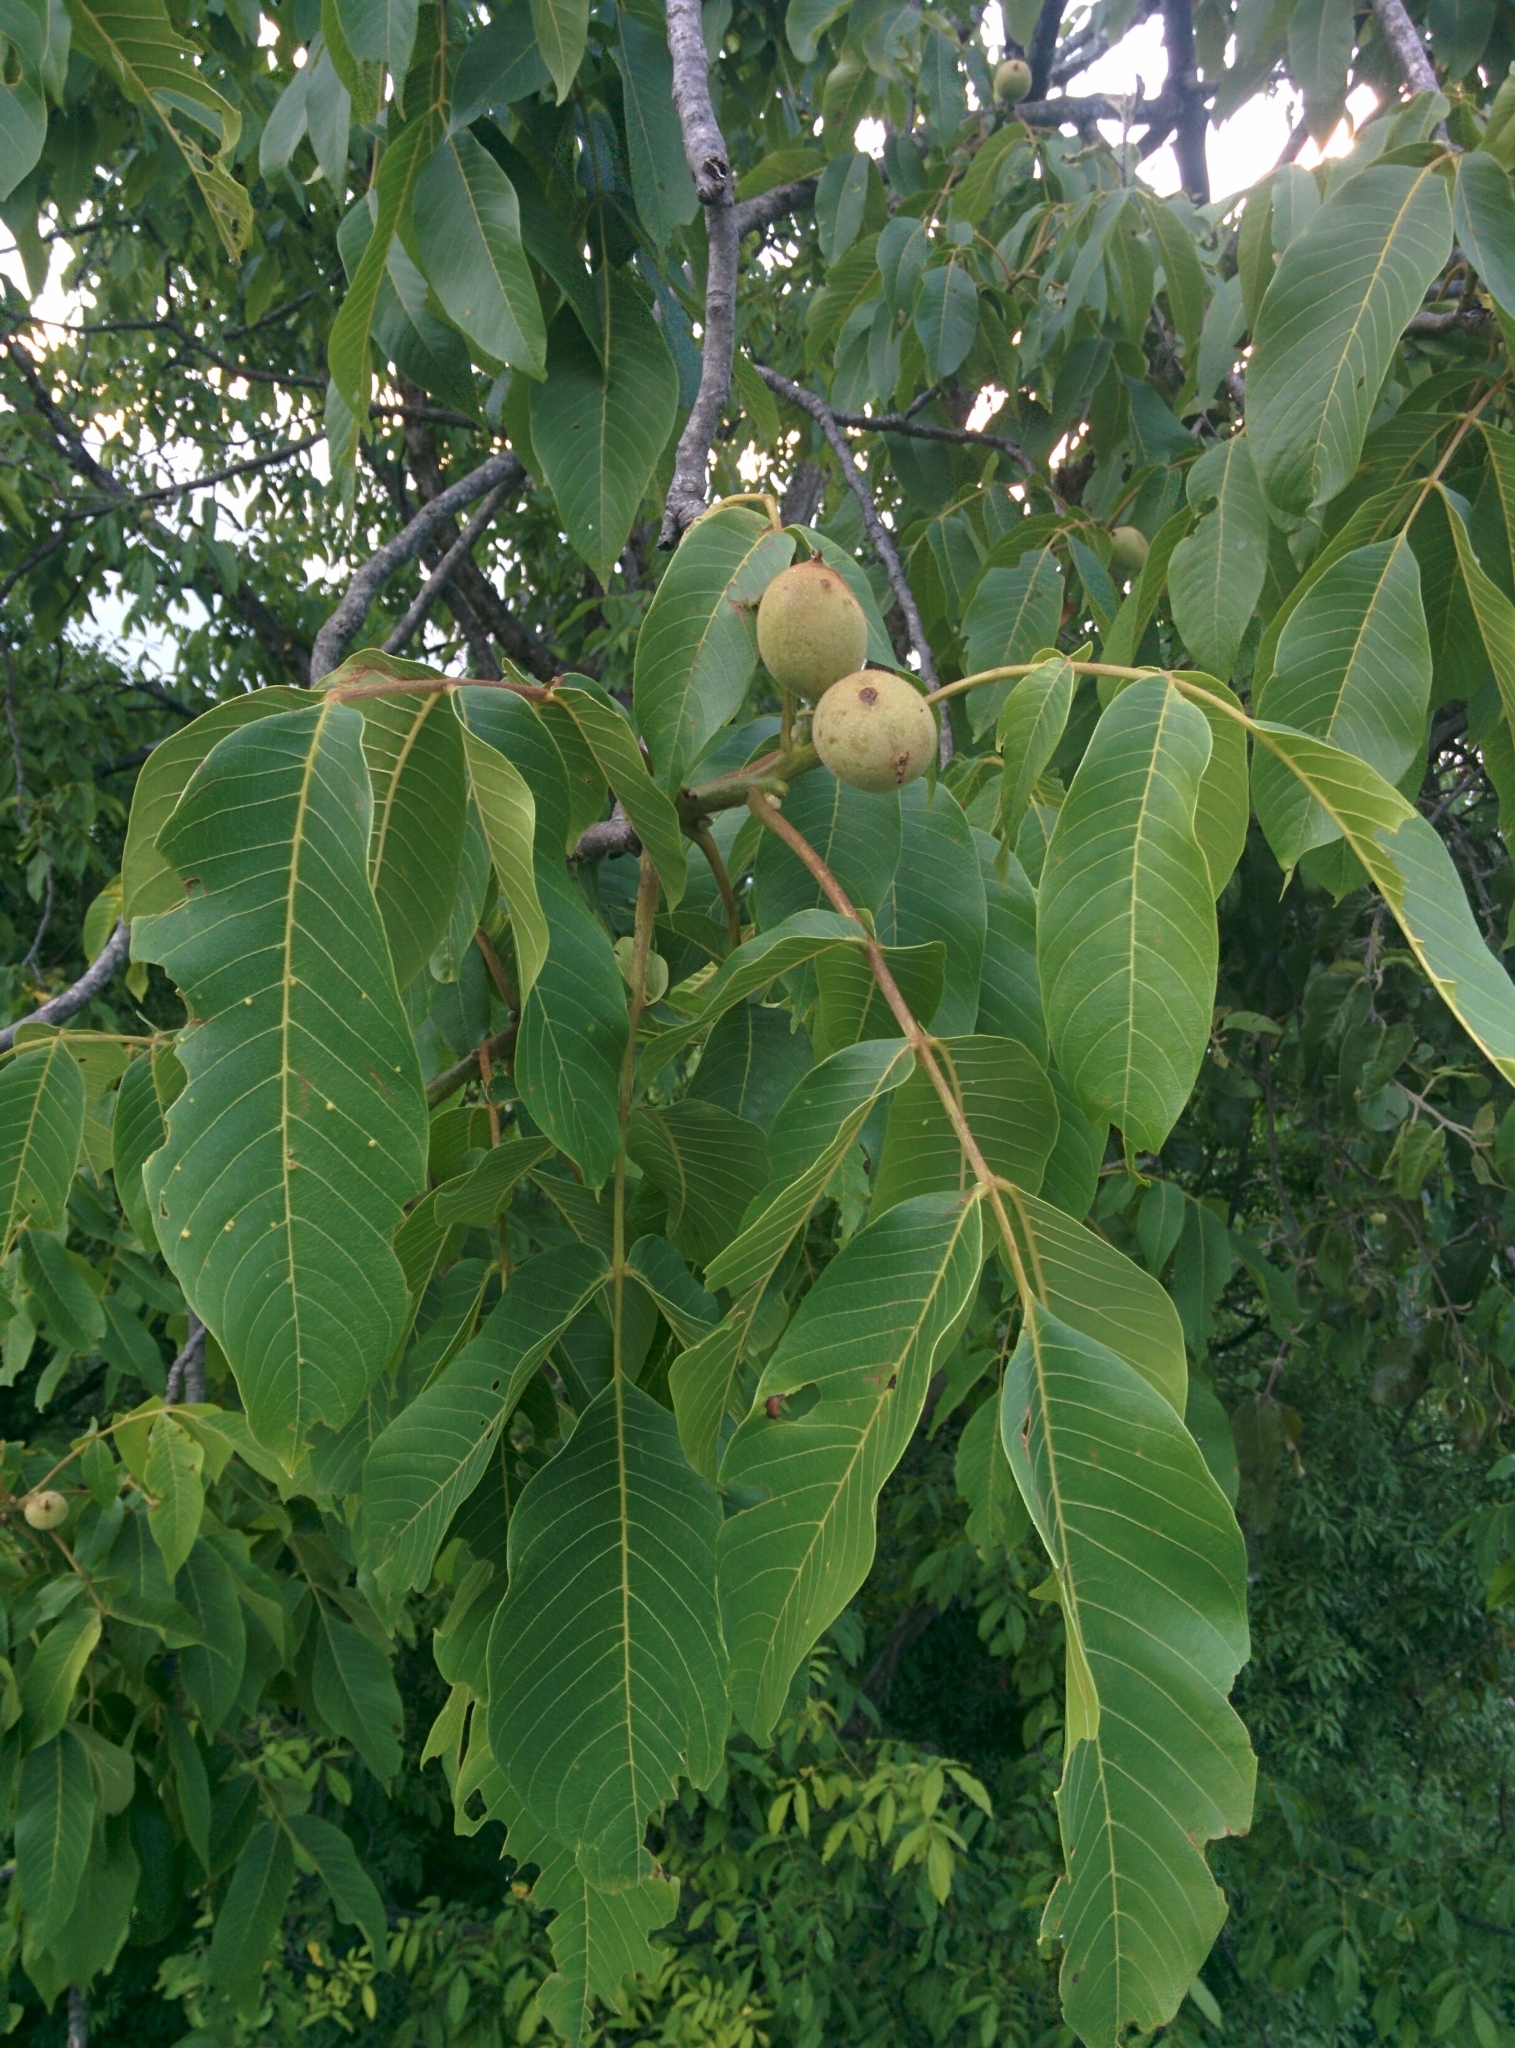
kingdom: Plantae
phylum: Tracheophyta
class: Magnoliopsida
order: Fagales
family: Juglandaceae
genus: Juglans
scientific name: Juglans regia
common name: Walnut
